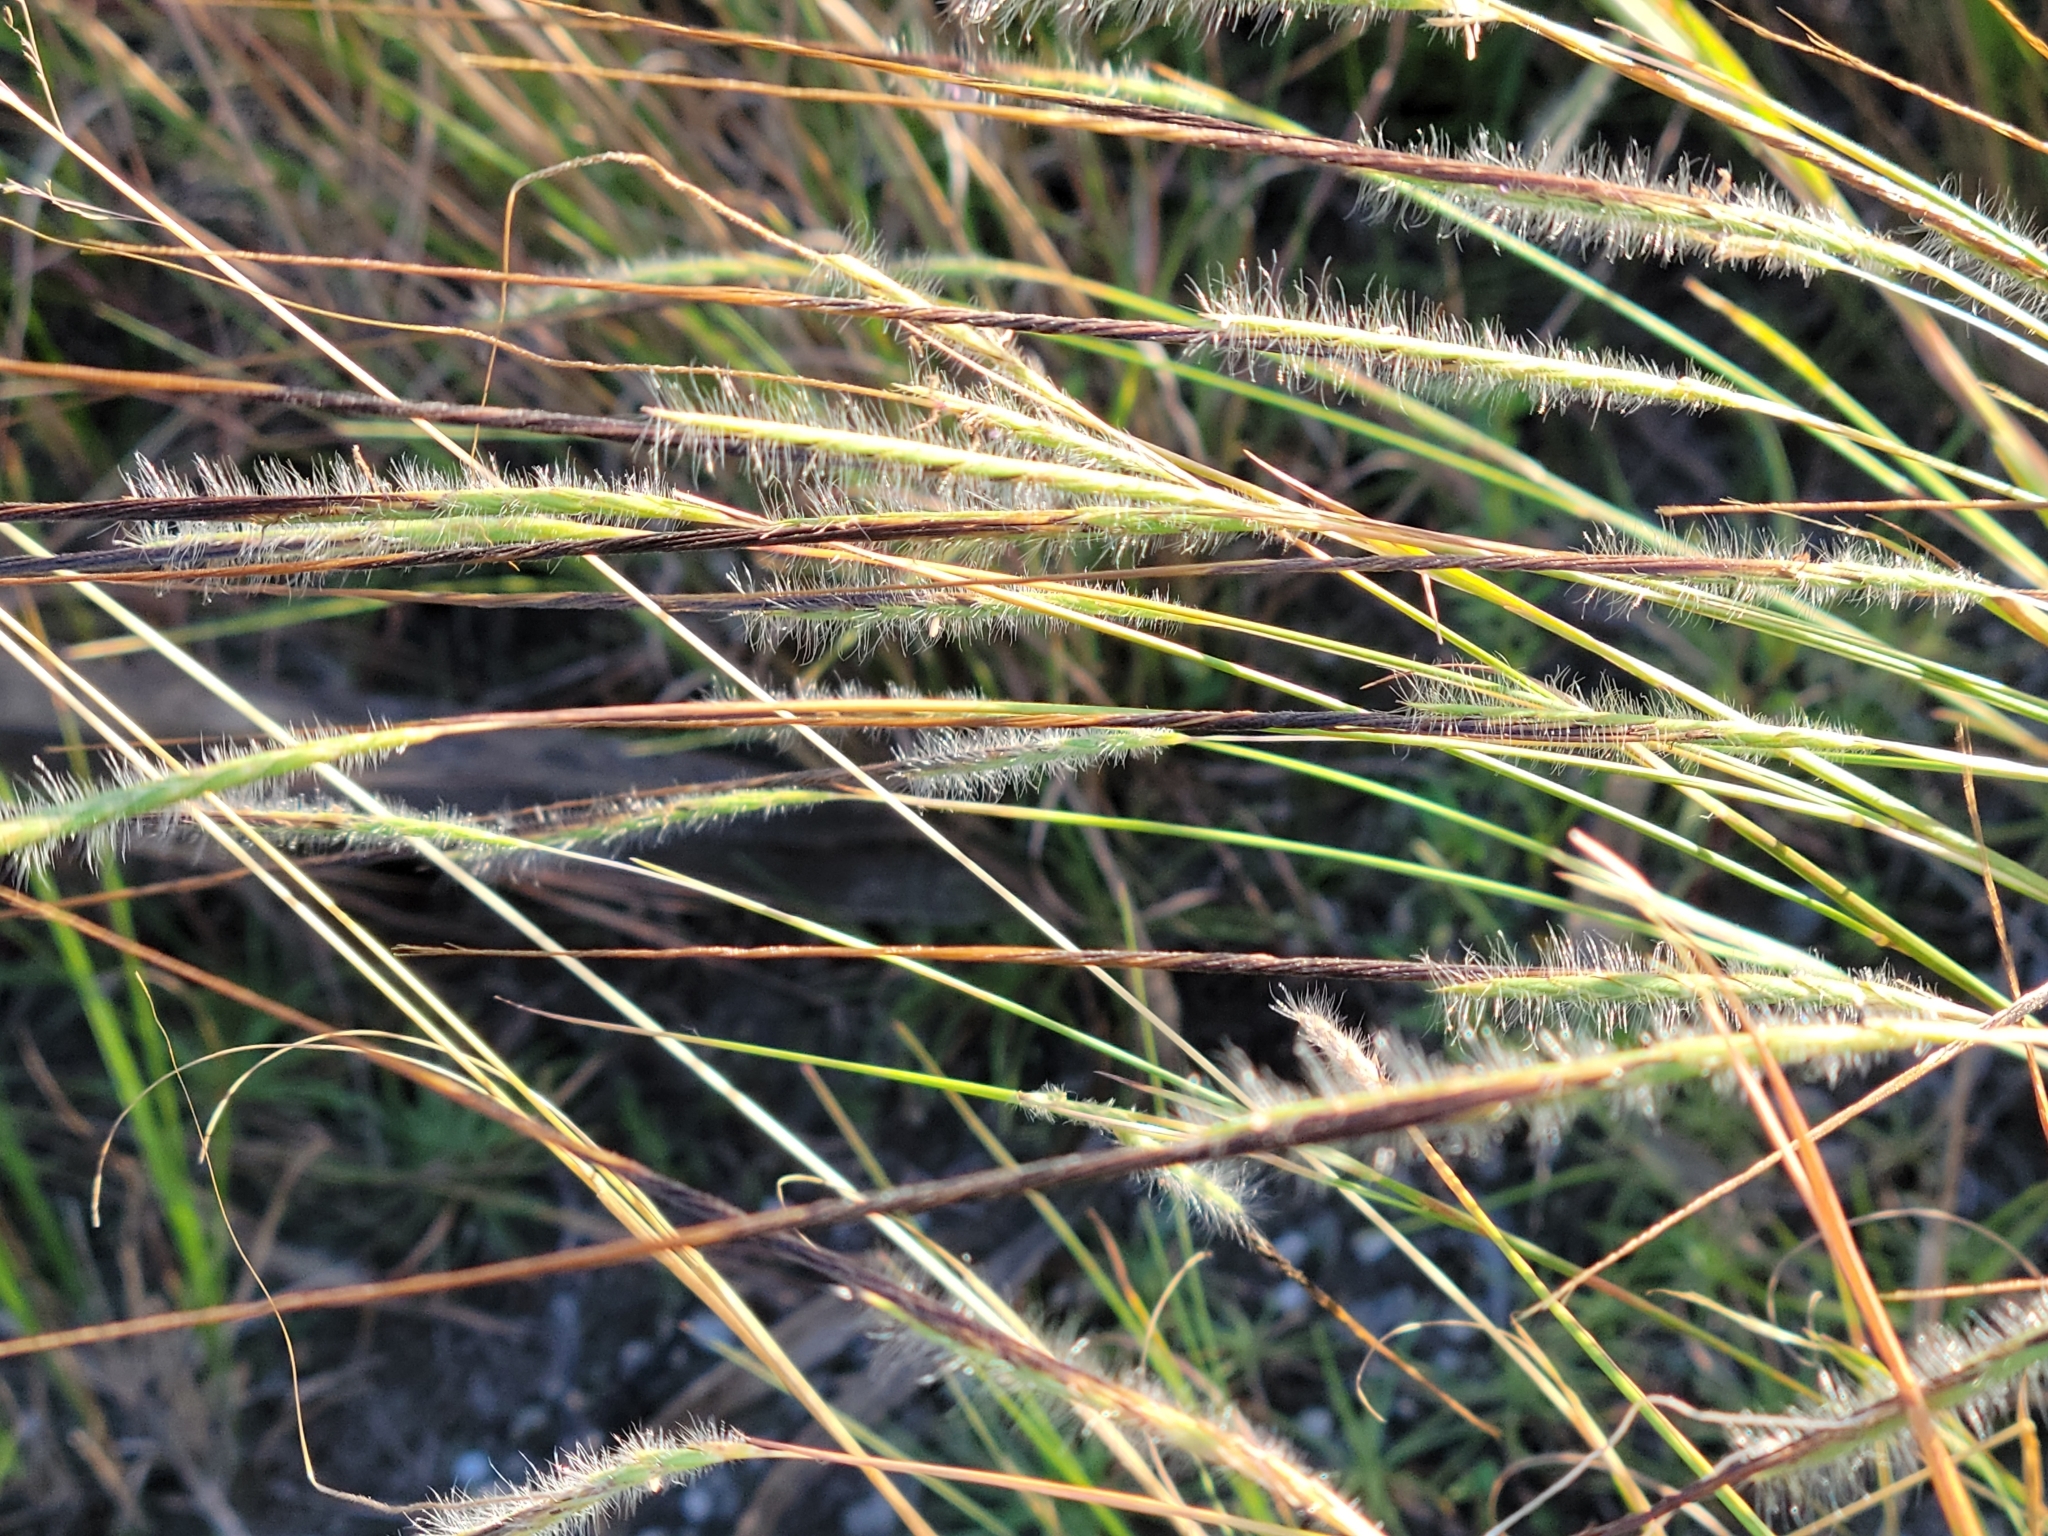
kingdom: Plantae
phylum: Tracheophyta
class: Liliopsida
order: Poales
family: Poaceae
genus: Heteropogon
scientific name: Heteropogon contortus
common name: Tanglehead
